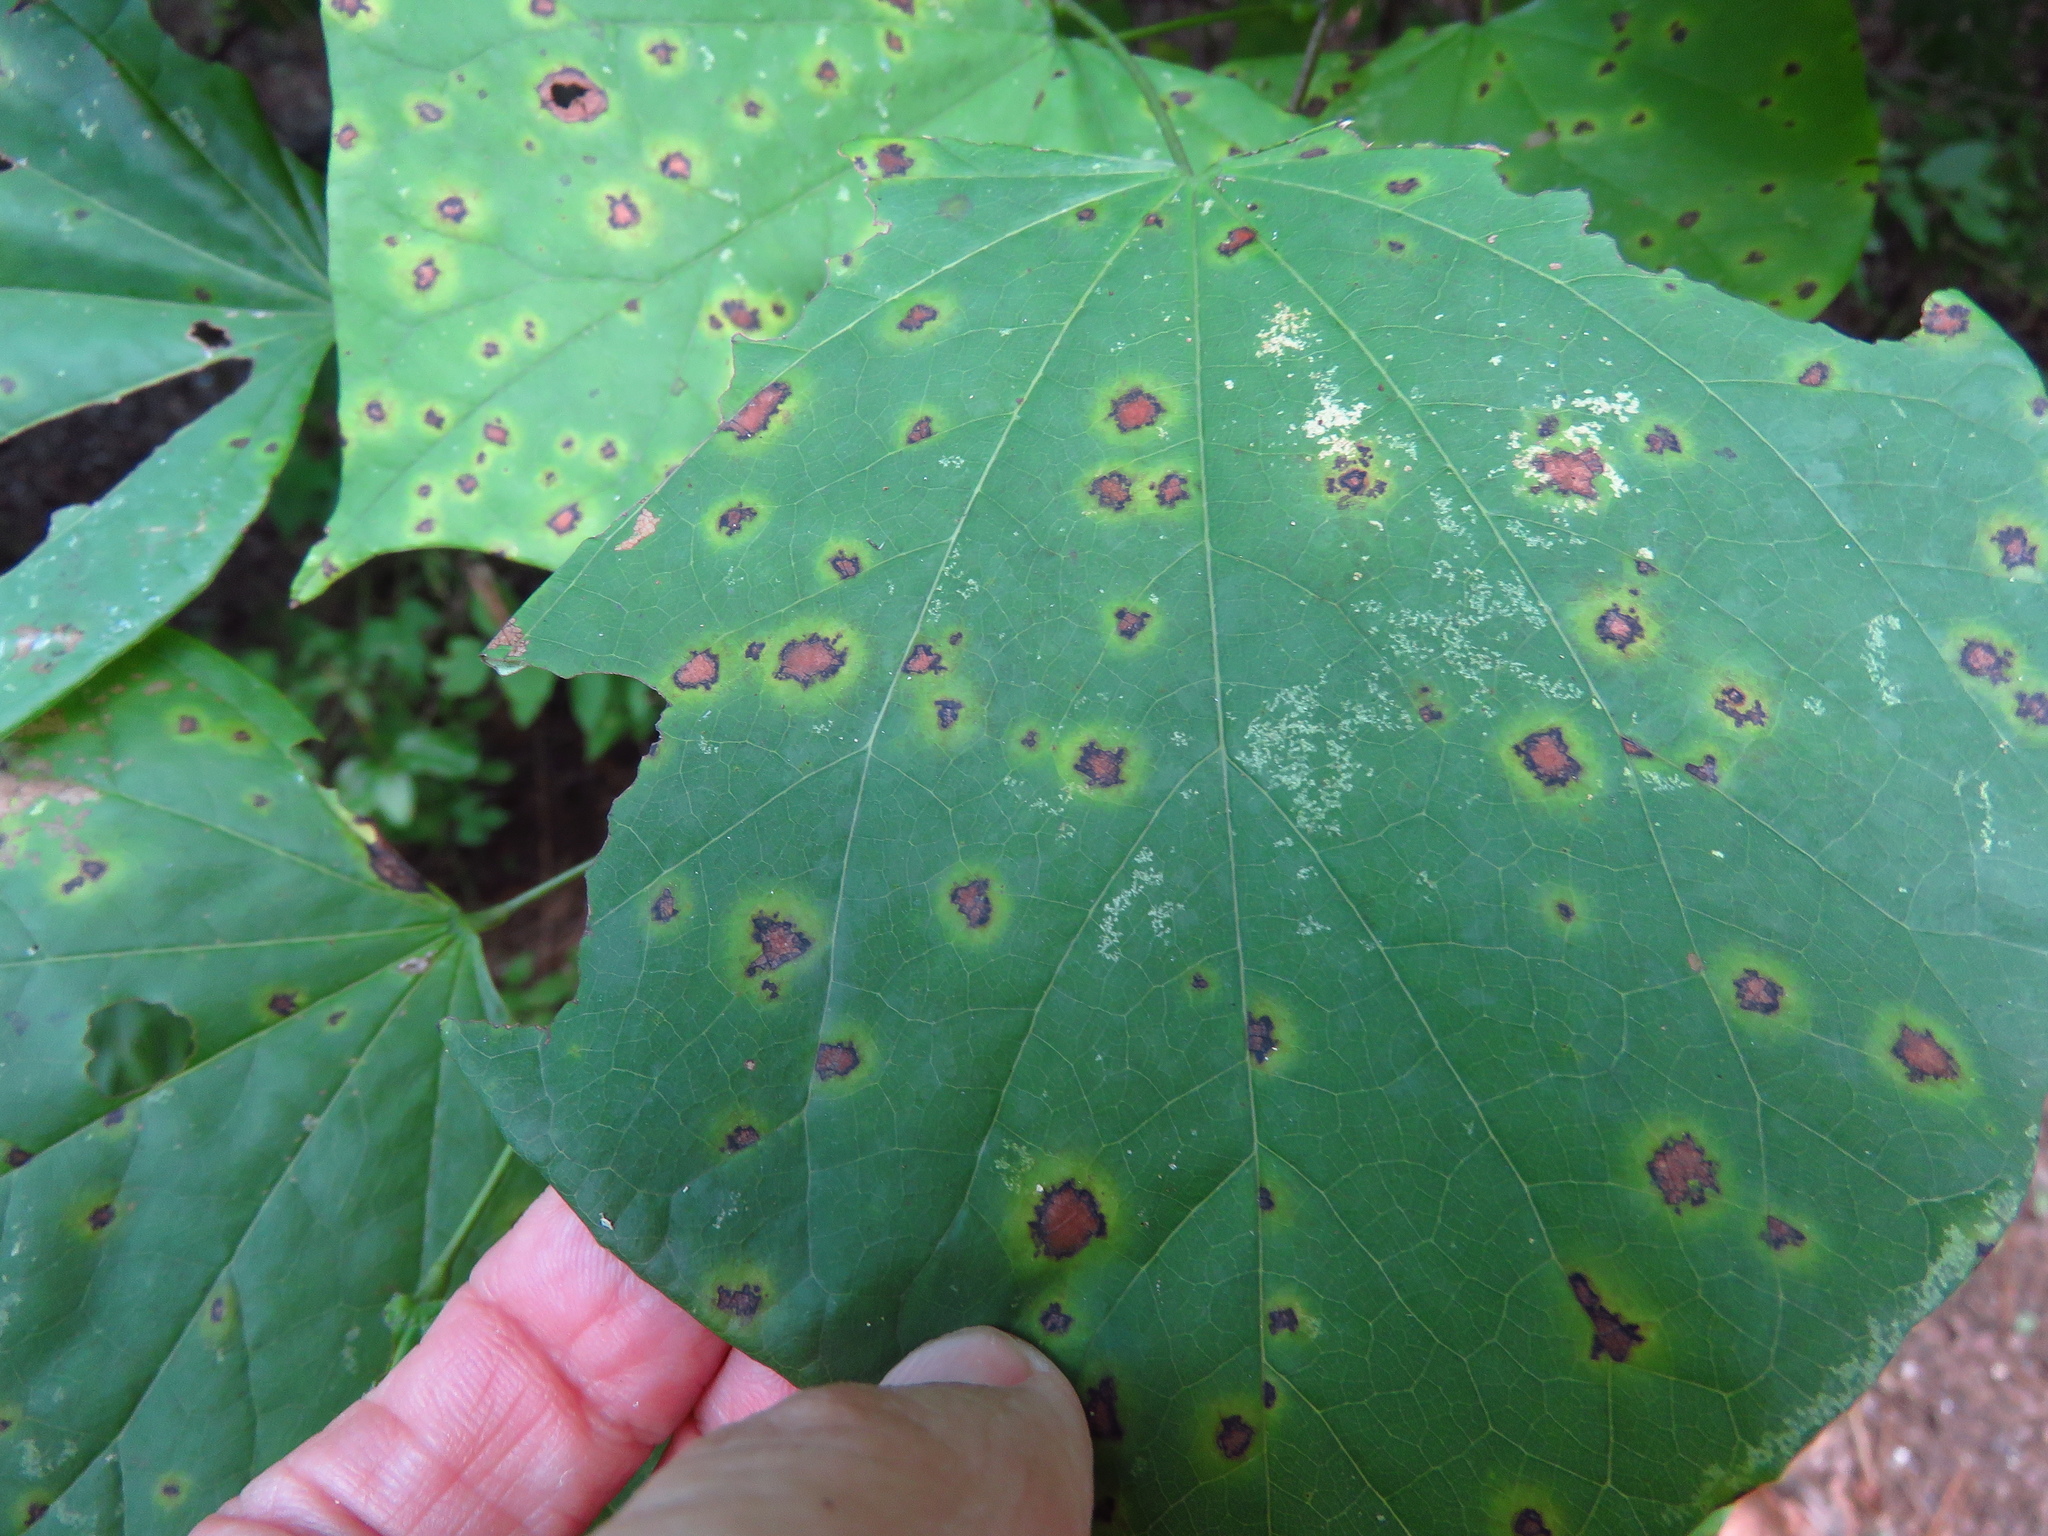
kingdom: Fungi
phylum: Ascomycota
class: Dothideomycetes
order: Mycosphaerellales
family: Mycosphaerellaceae
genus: Pseudocercospora
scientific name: Pseudocercospora vitis
